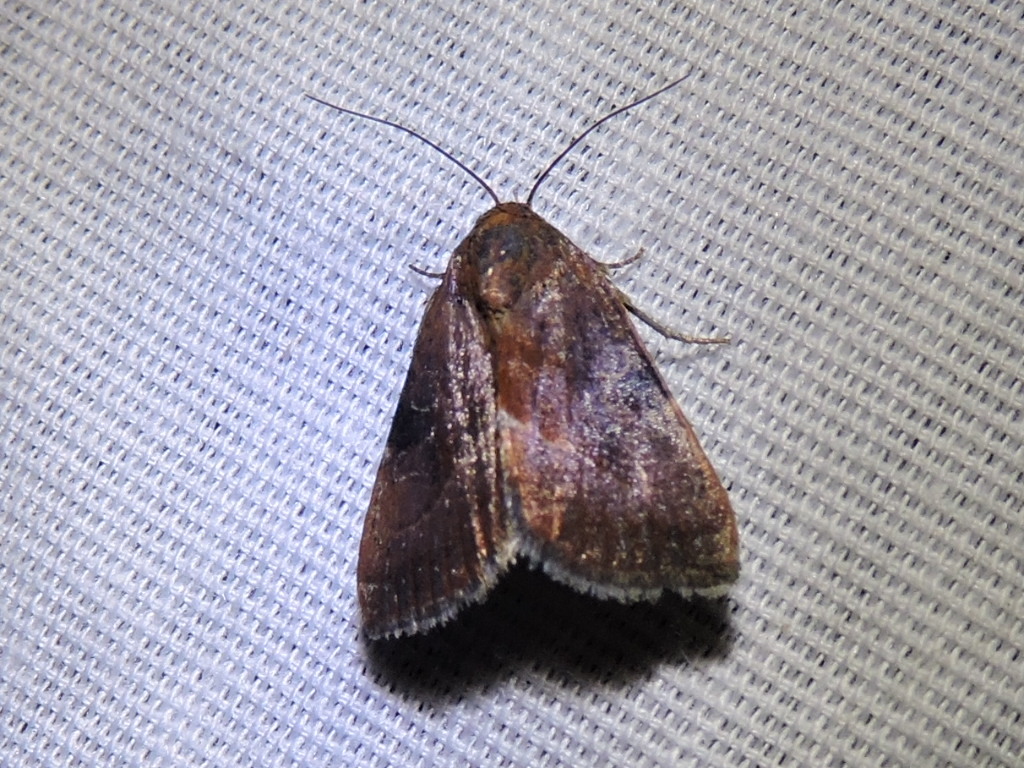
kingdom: Animalia
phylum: Arthropoda
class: Insecta
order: Lepidoptera
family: Noctuidae
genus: Galgula
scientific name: Galgula partita
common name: Wedgeling
